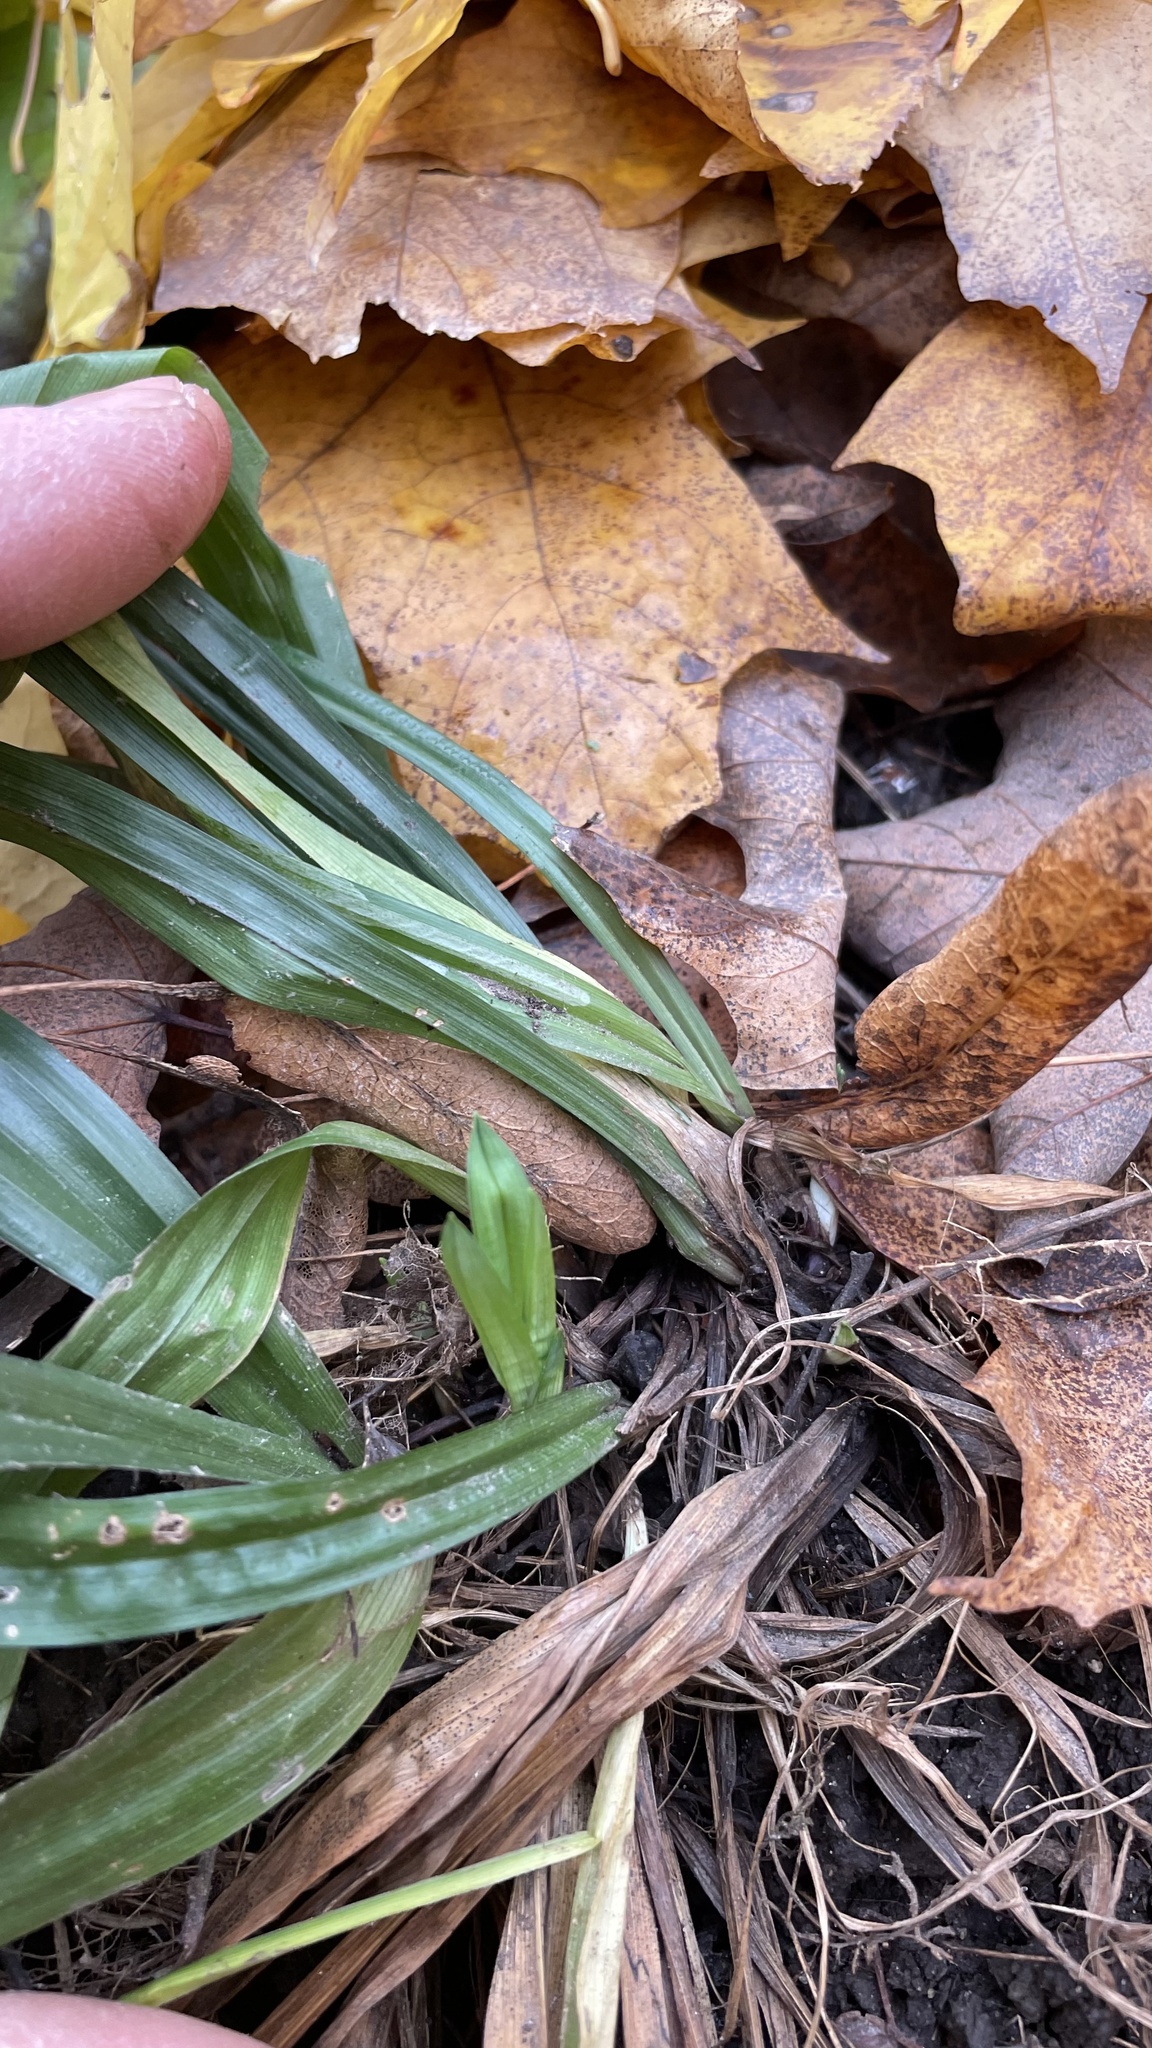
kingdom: Plantae
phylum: Tracheophyta
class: Liliopsida
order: Poales
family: Cyperaceae
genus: Carex
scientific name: Carex albursina
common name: Blunt-scale wood sedge
